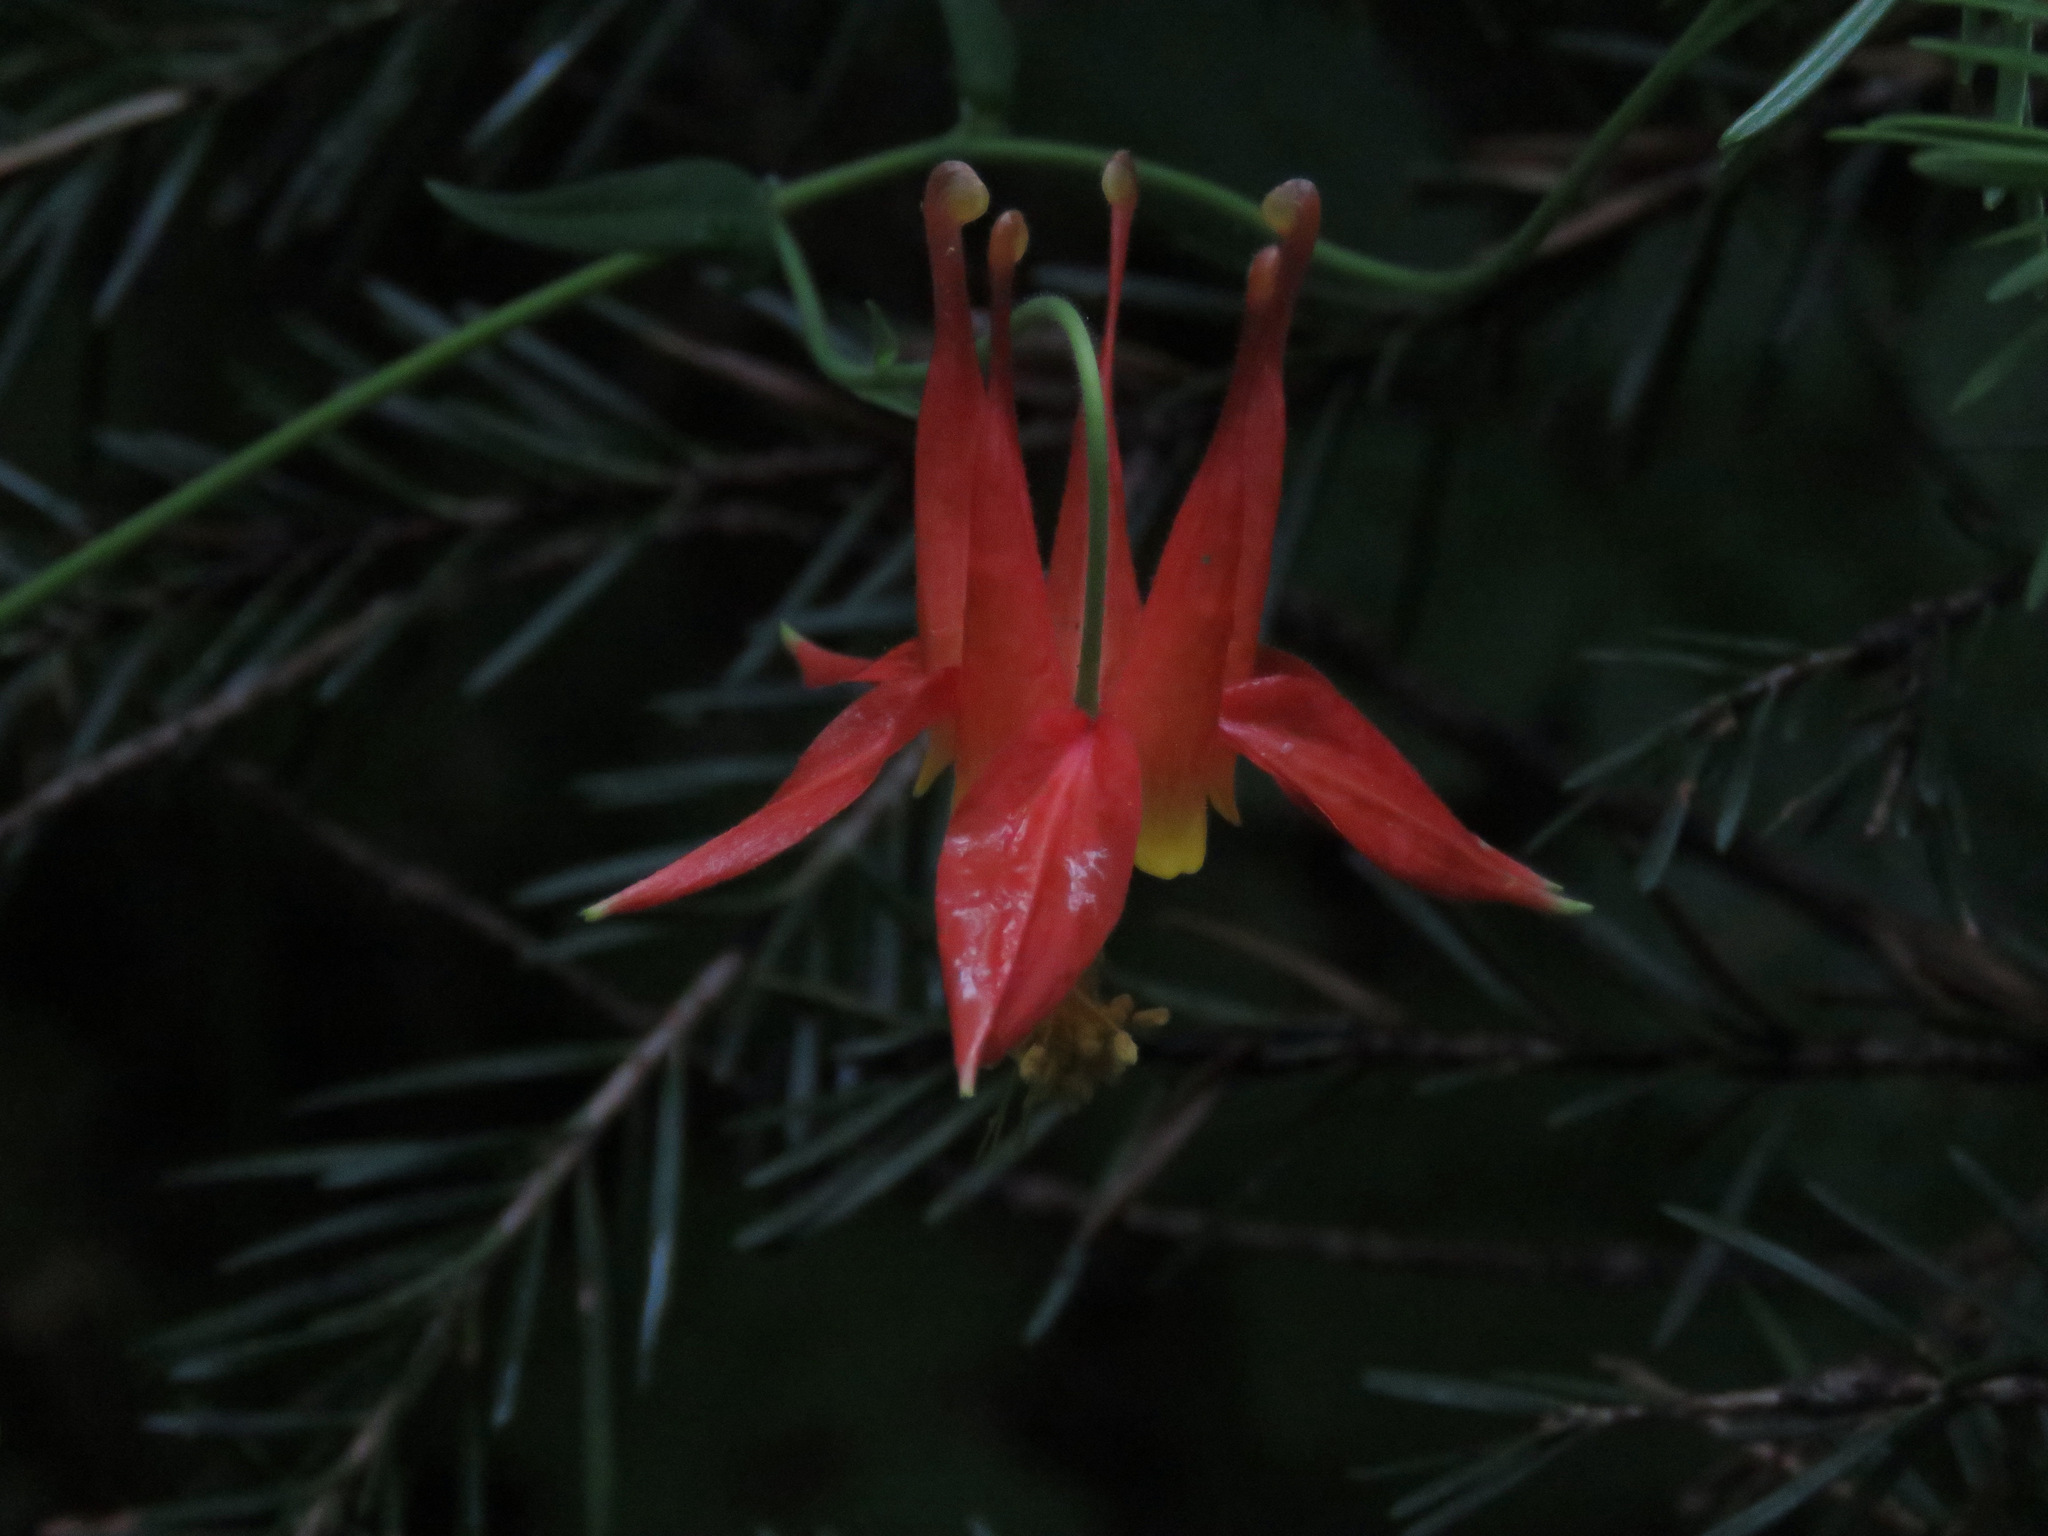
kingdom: Plantae
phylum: Tracheophyta
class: Magnoliopsida
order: Ranunculales
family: Ranunculaceae
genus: Aquilegia
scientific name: Aquilegia formosa
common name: Sitka columbine
